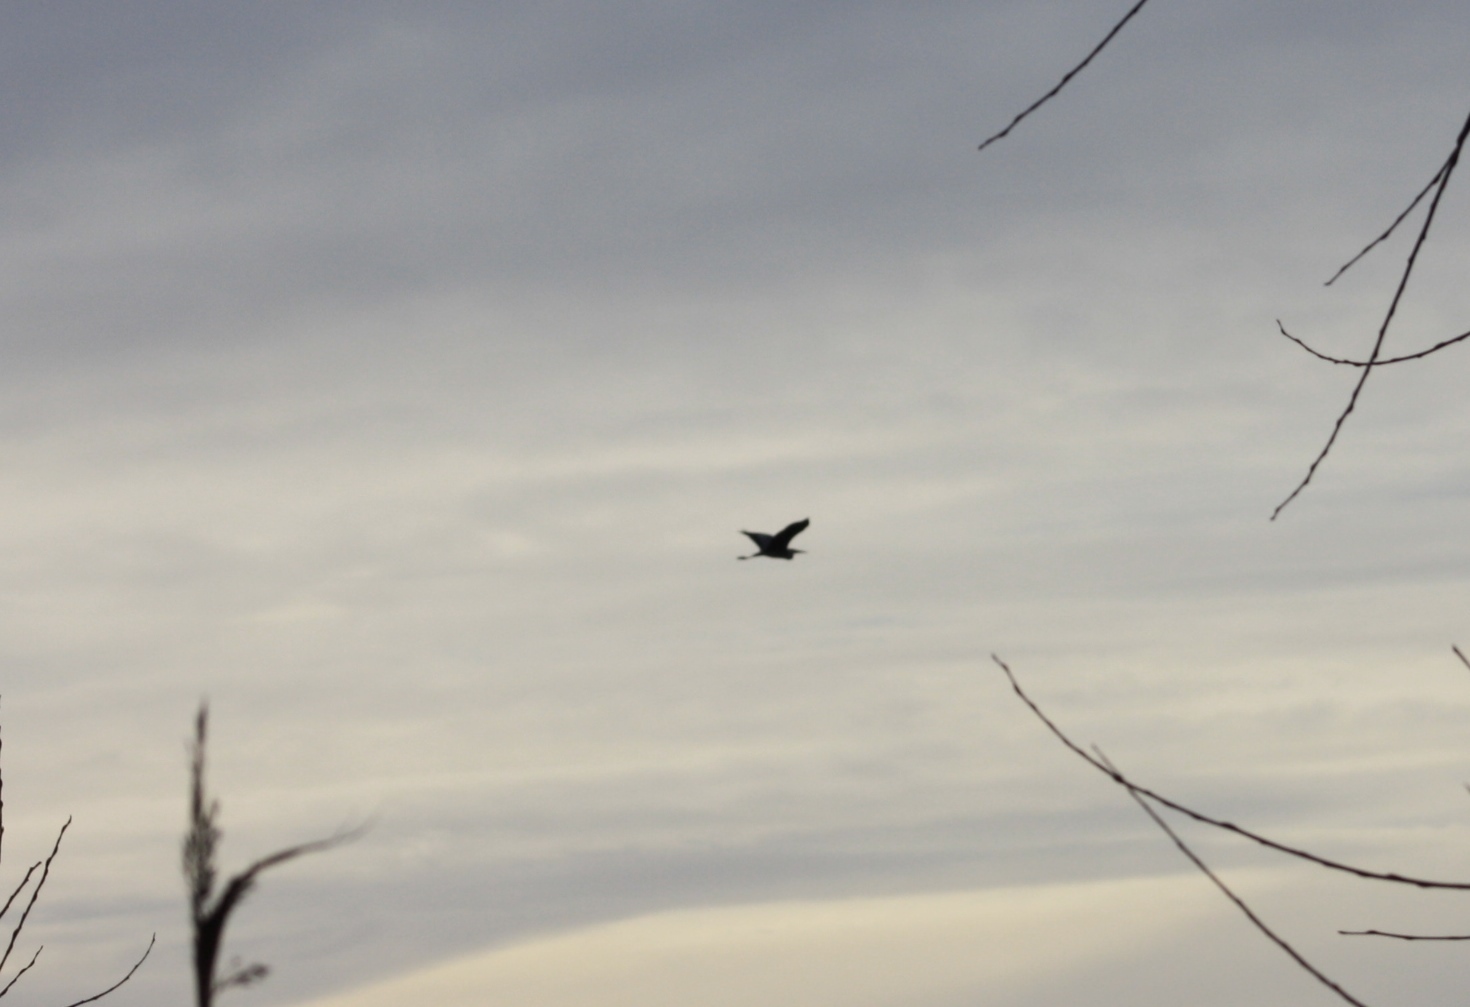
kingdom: Animalia
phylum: Chordata
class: Aves
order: Pelecaniformes
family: Ardeidae
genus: Ardea
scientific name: Ardea cinerea
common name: Grey heron
